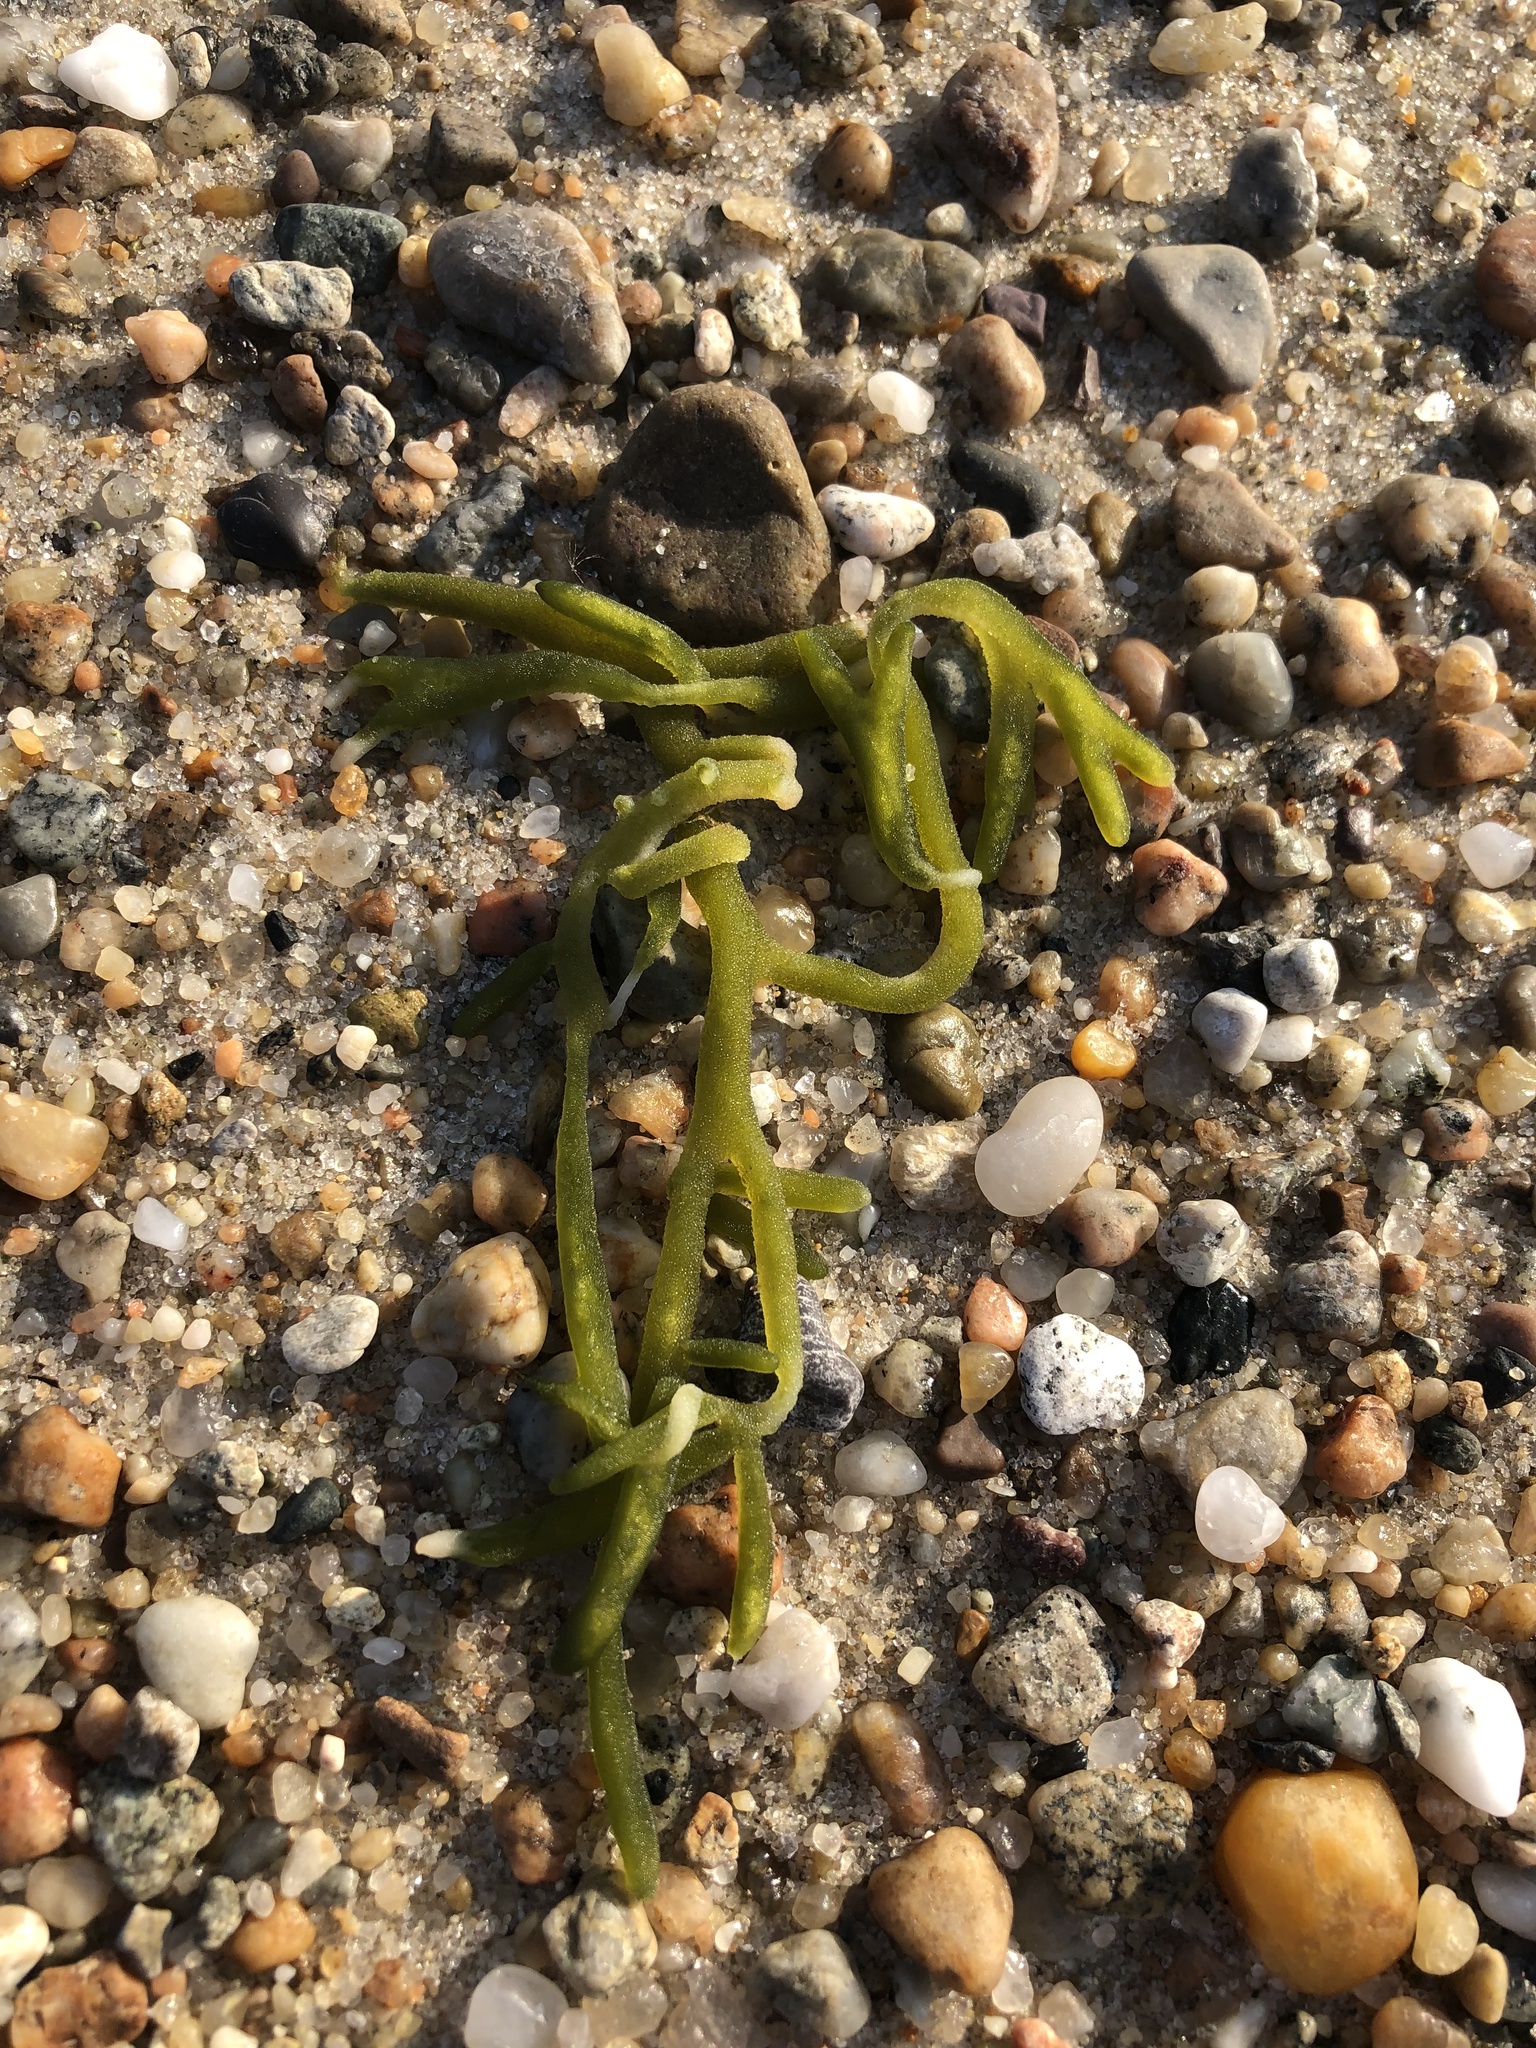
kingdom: Plantae
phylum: Chlorophyta
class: Ulvophyceae
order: Bryopsidales
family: Codiaceae
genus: Codium
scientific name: Codium fragile
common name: Dead man's fingers
